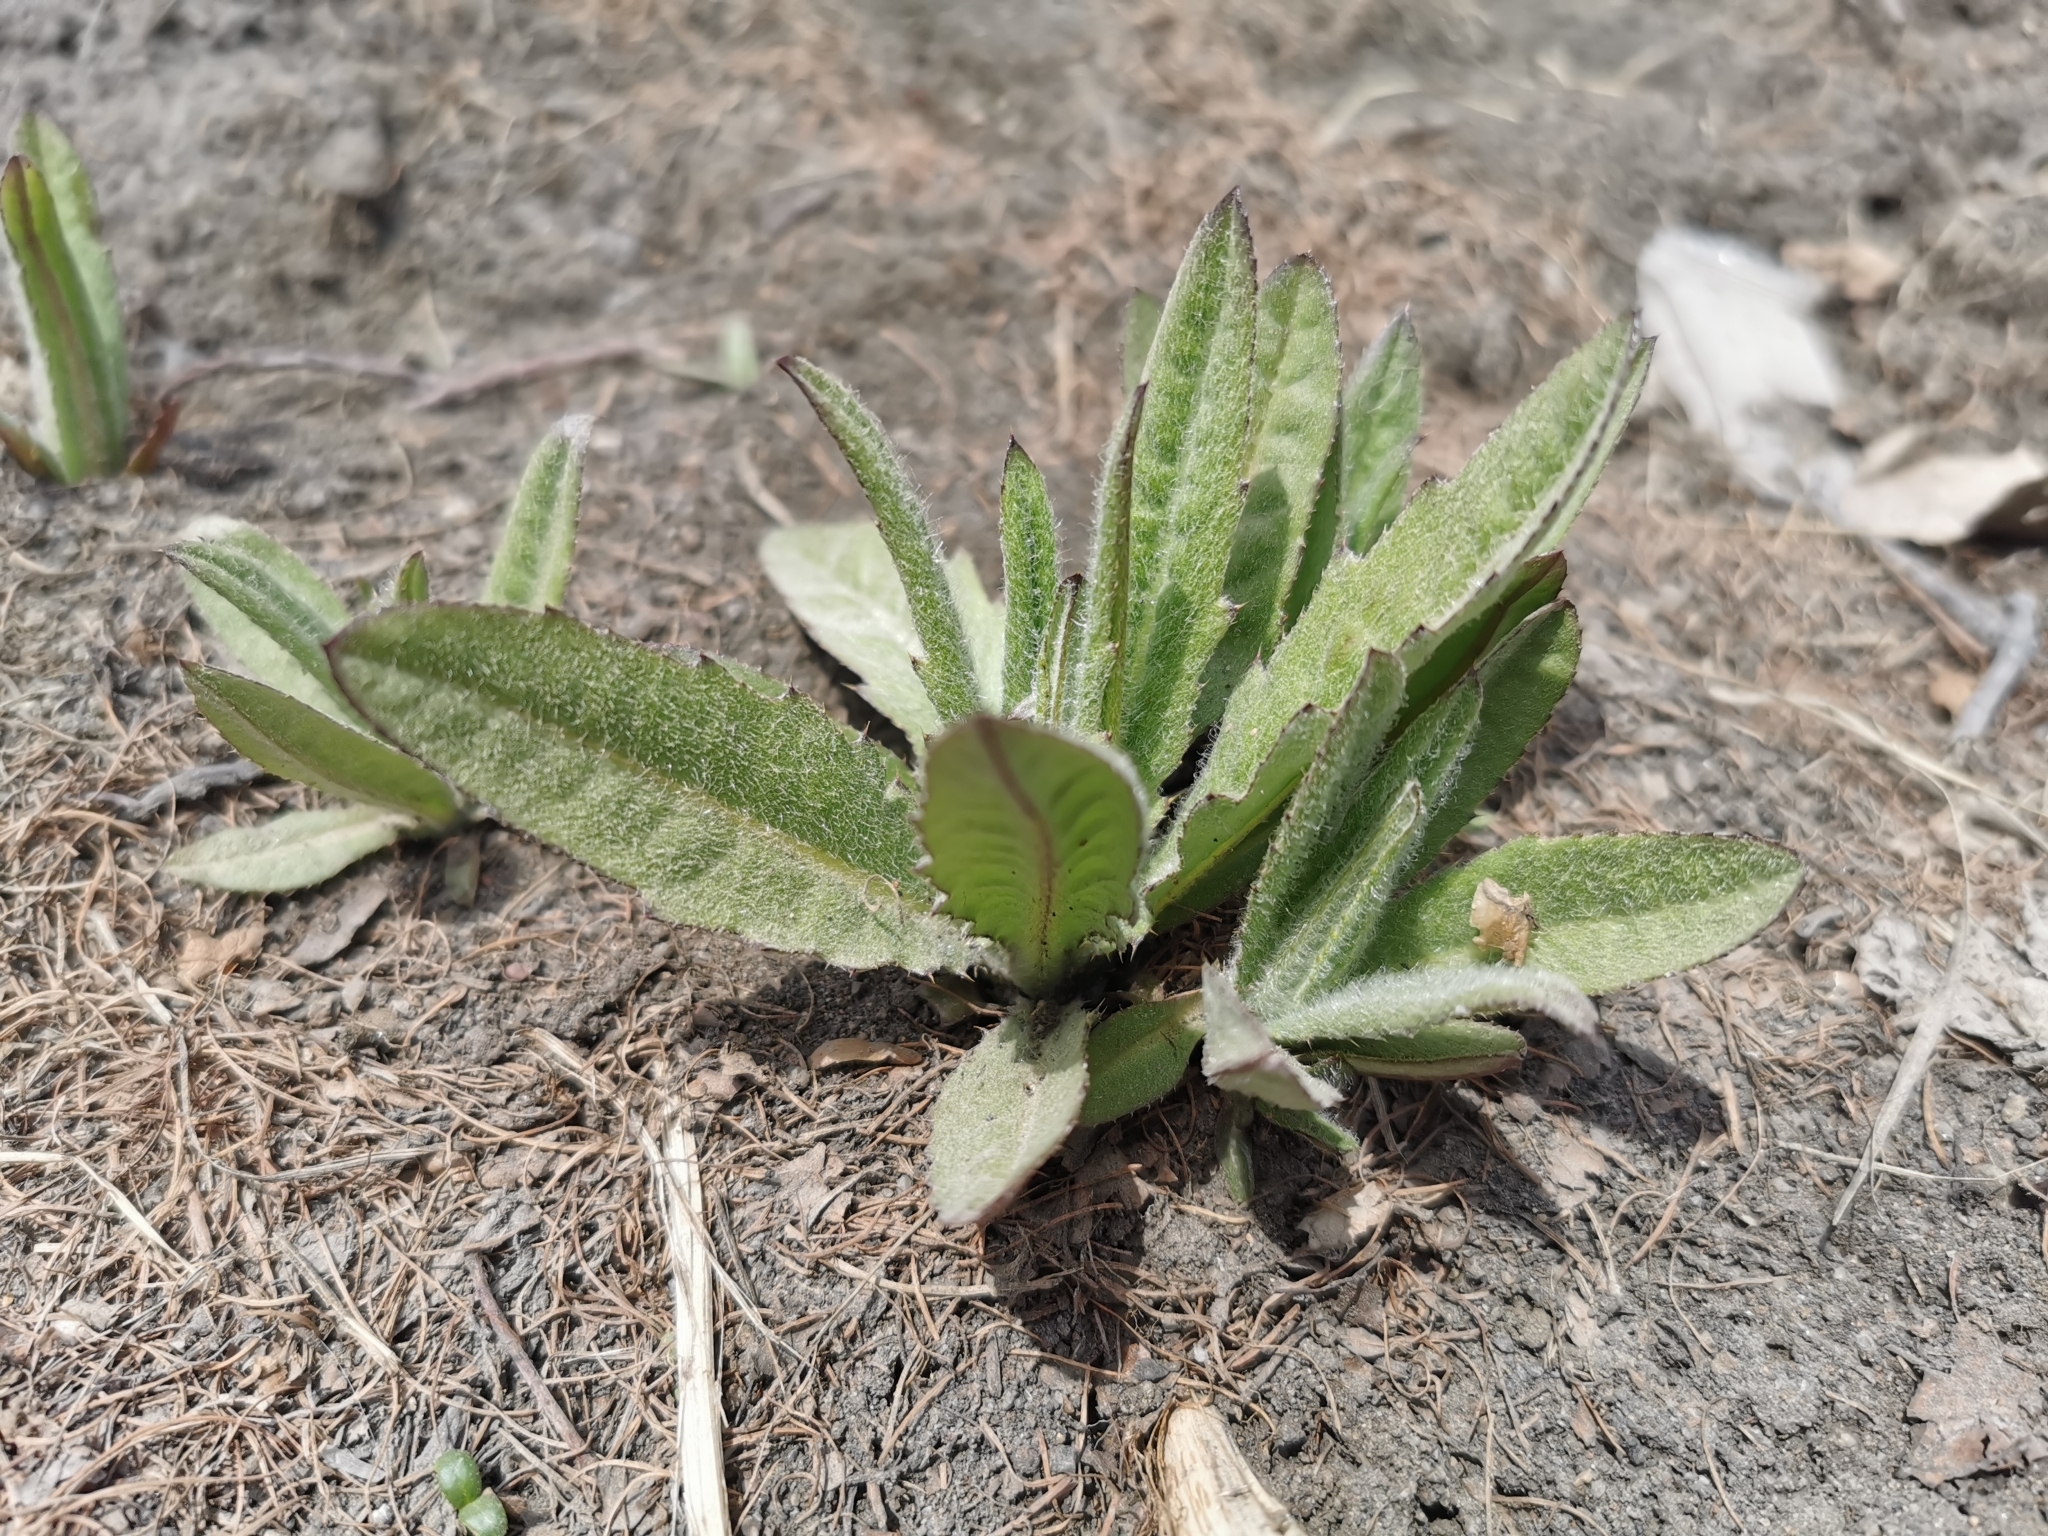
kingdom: Plantae
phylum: Tracheophyta
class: Magnoliopsida
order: Asterales
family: Asteraceae
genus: Cirsium
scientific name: Cirsium arvense
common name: Creeping thistle
